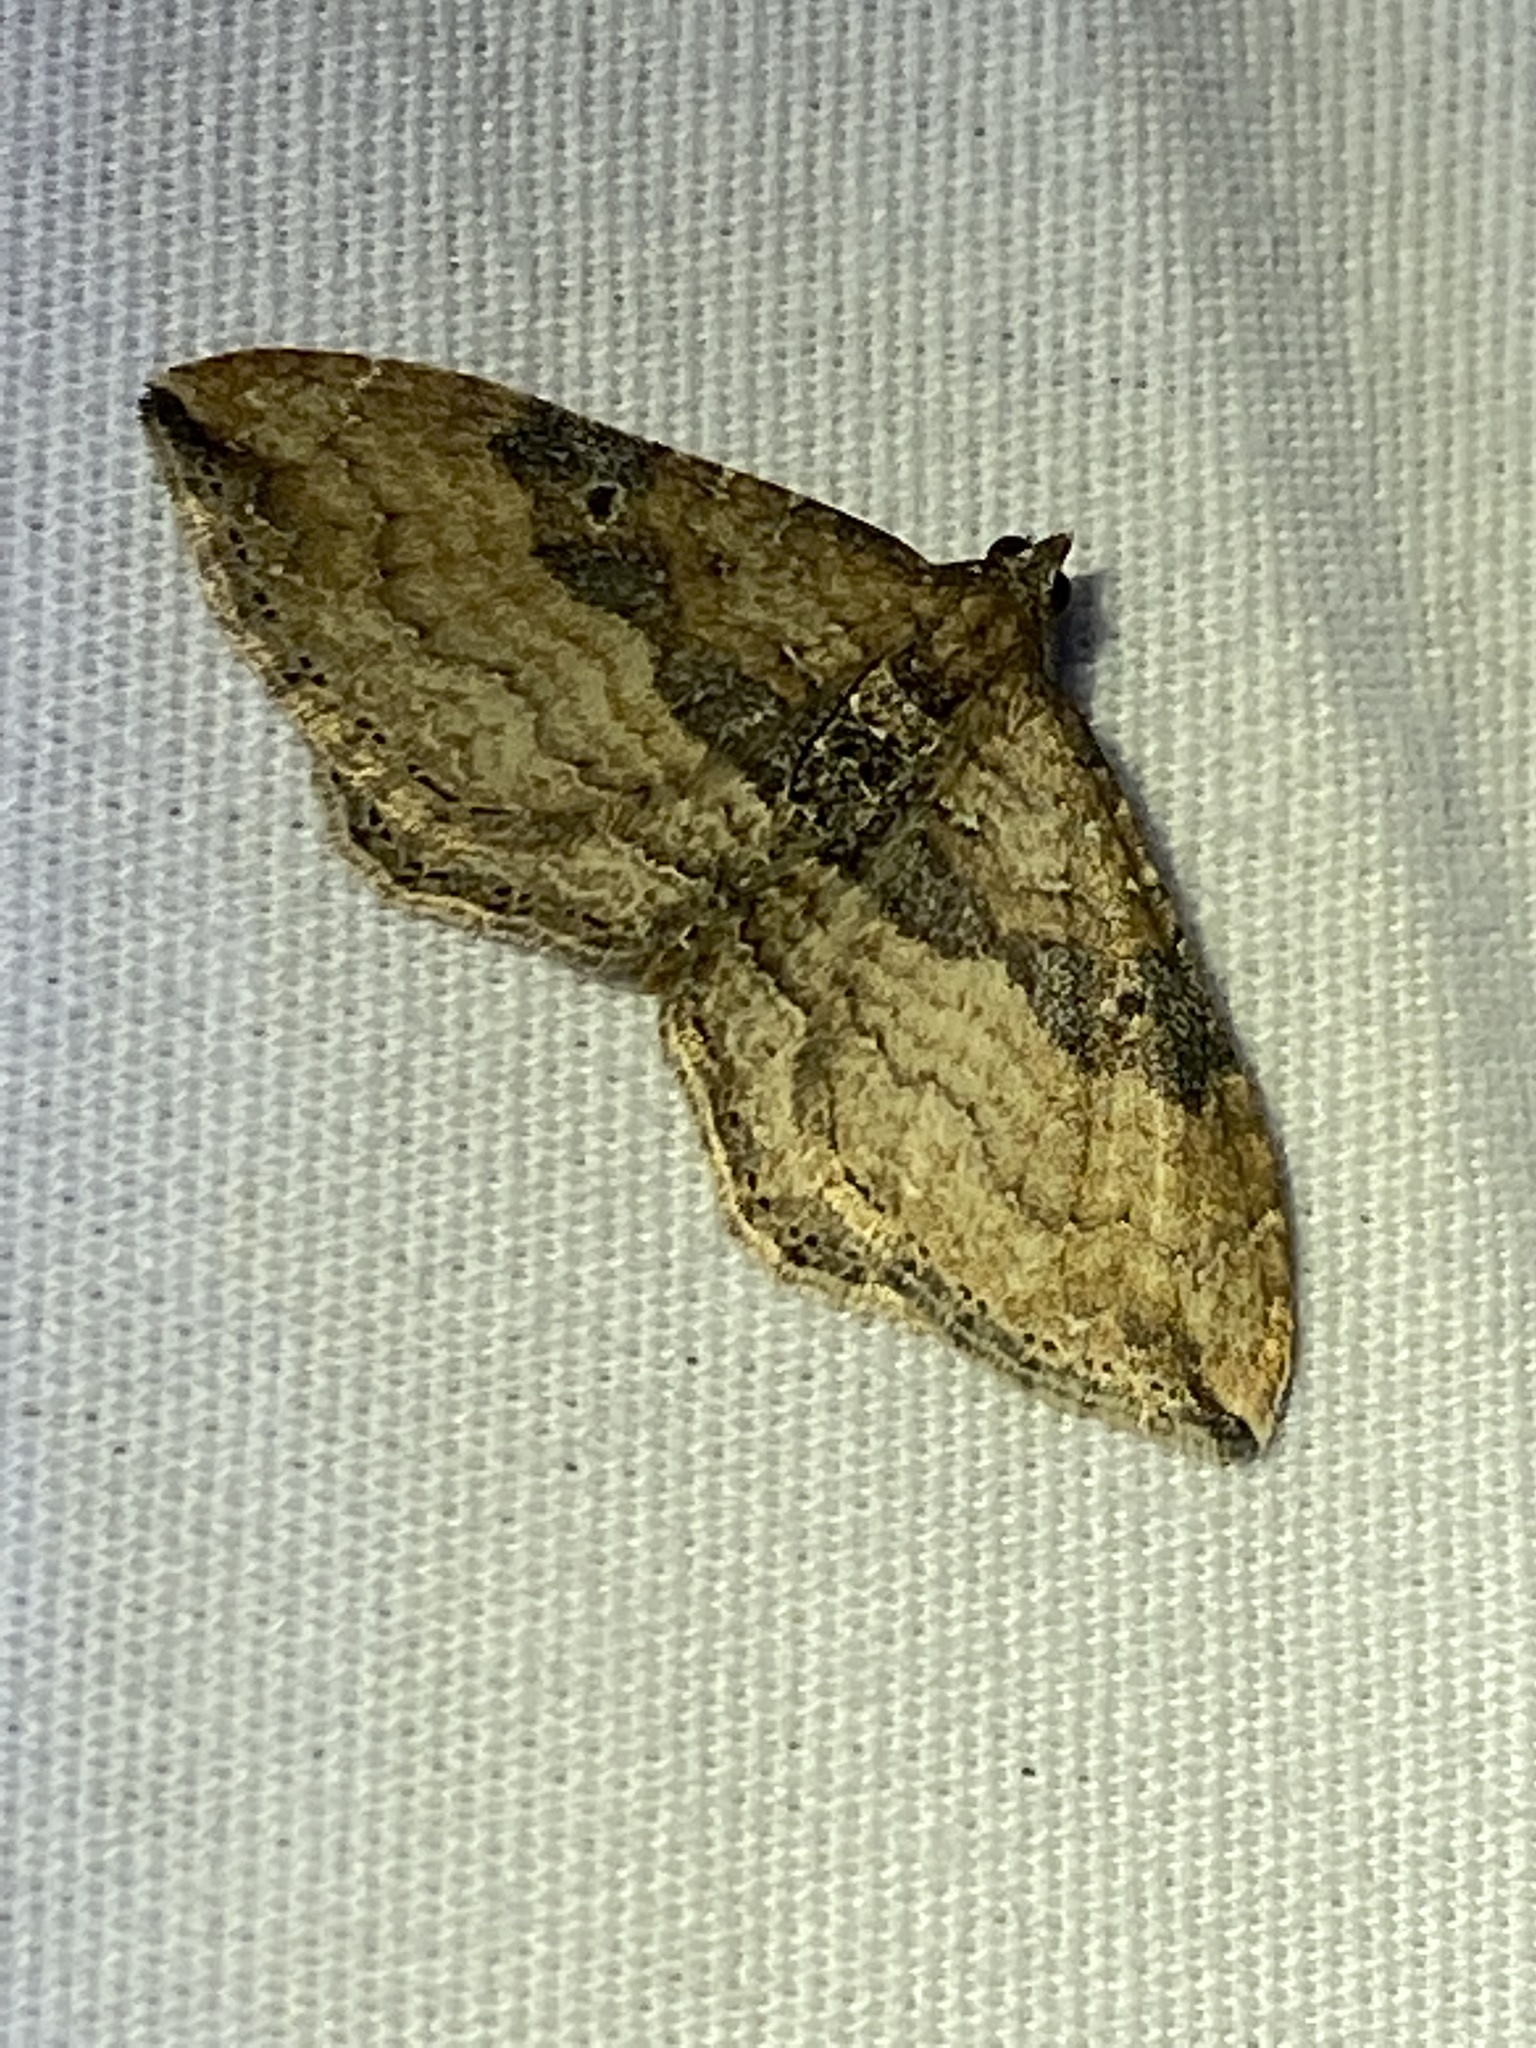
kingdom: Animalia
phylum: Arthropoda
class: Insecta
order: Lepidoptera
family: Geometridae
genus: Orthonama
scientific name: Orthonama obstipata
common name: The gem
